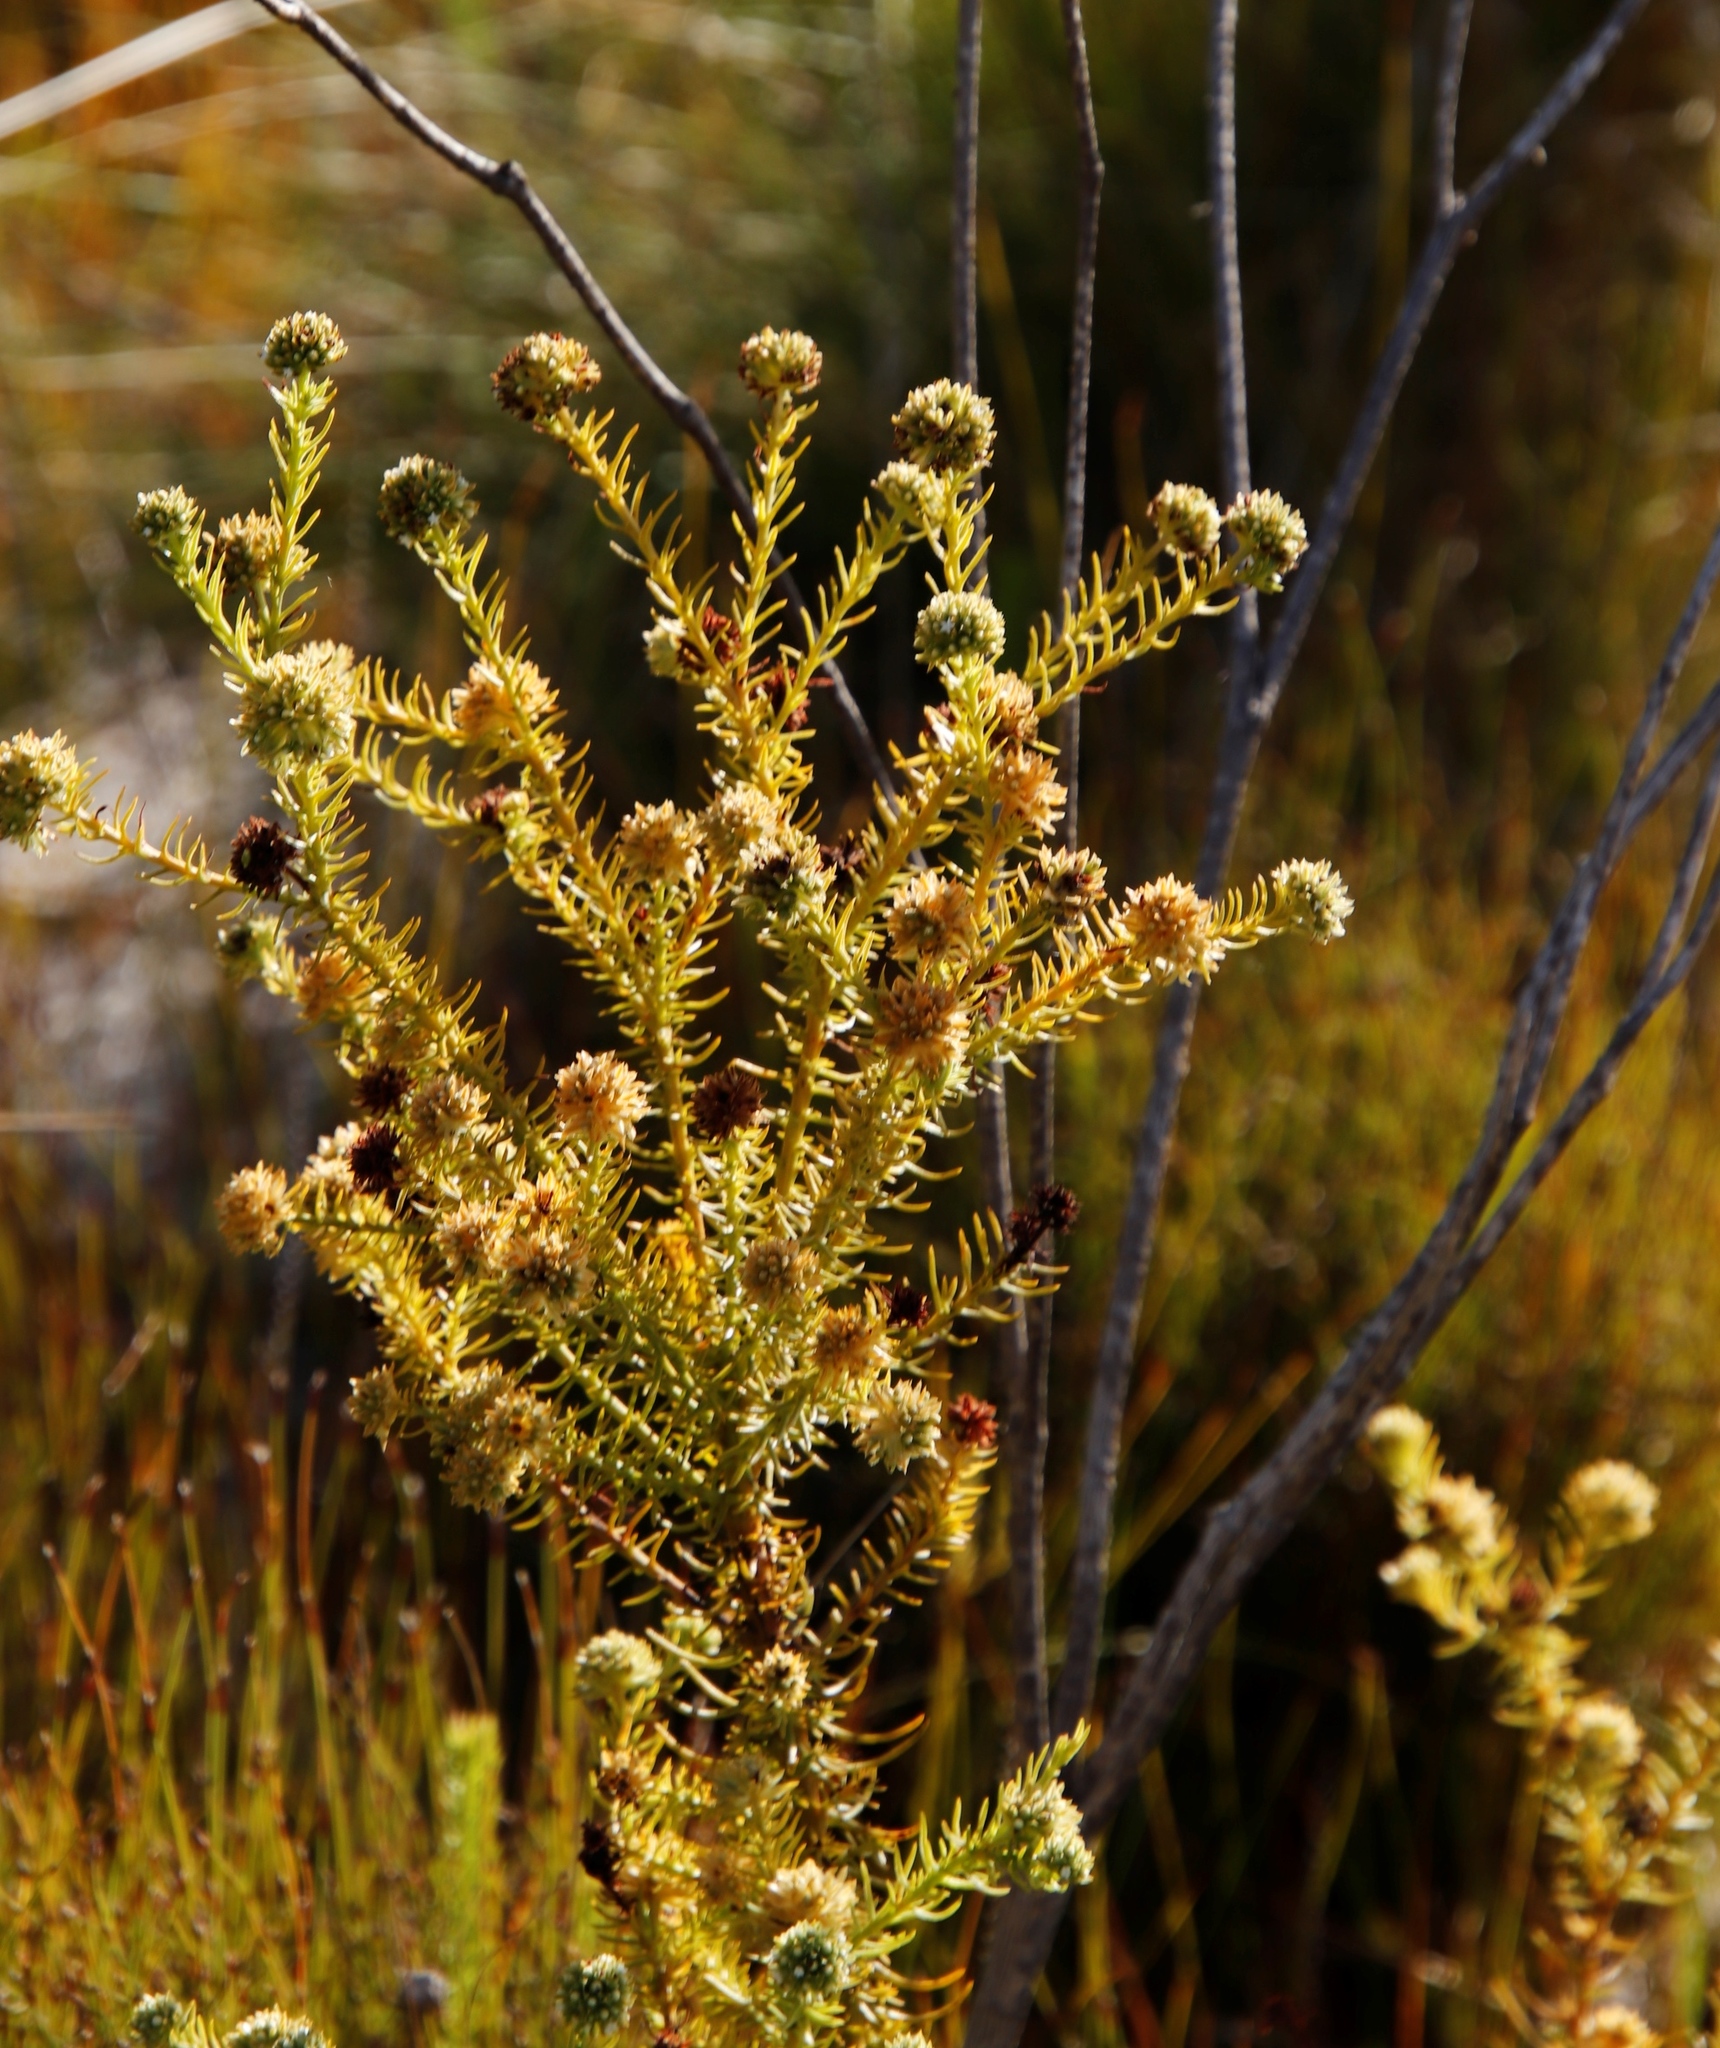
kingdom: Plantae
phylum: Tracheophyta
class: Magnoliopsida
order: Santalales
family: Thesiaceae
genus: Thesium
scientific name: Thesium scabrum
